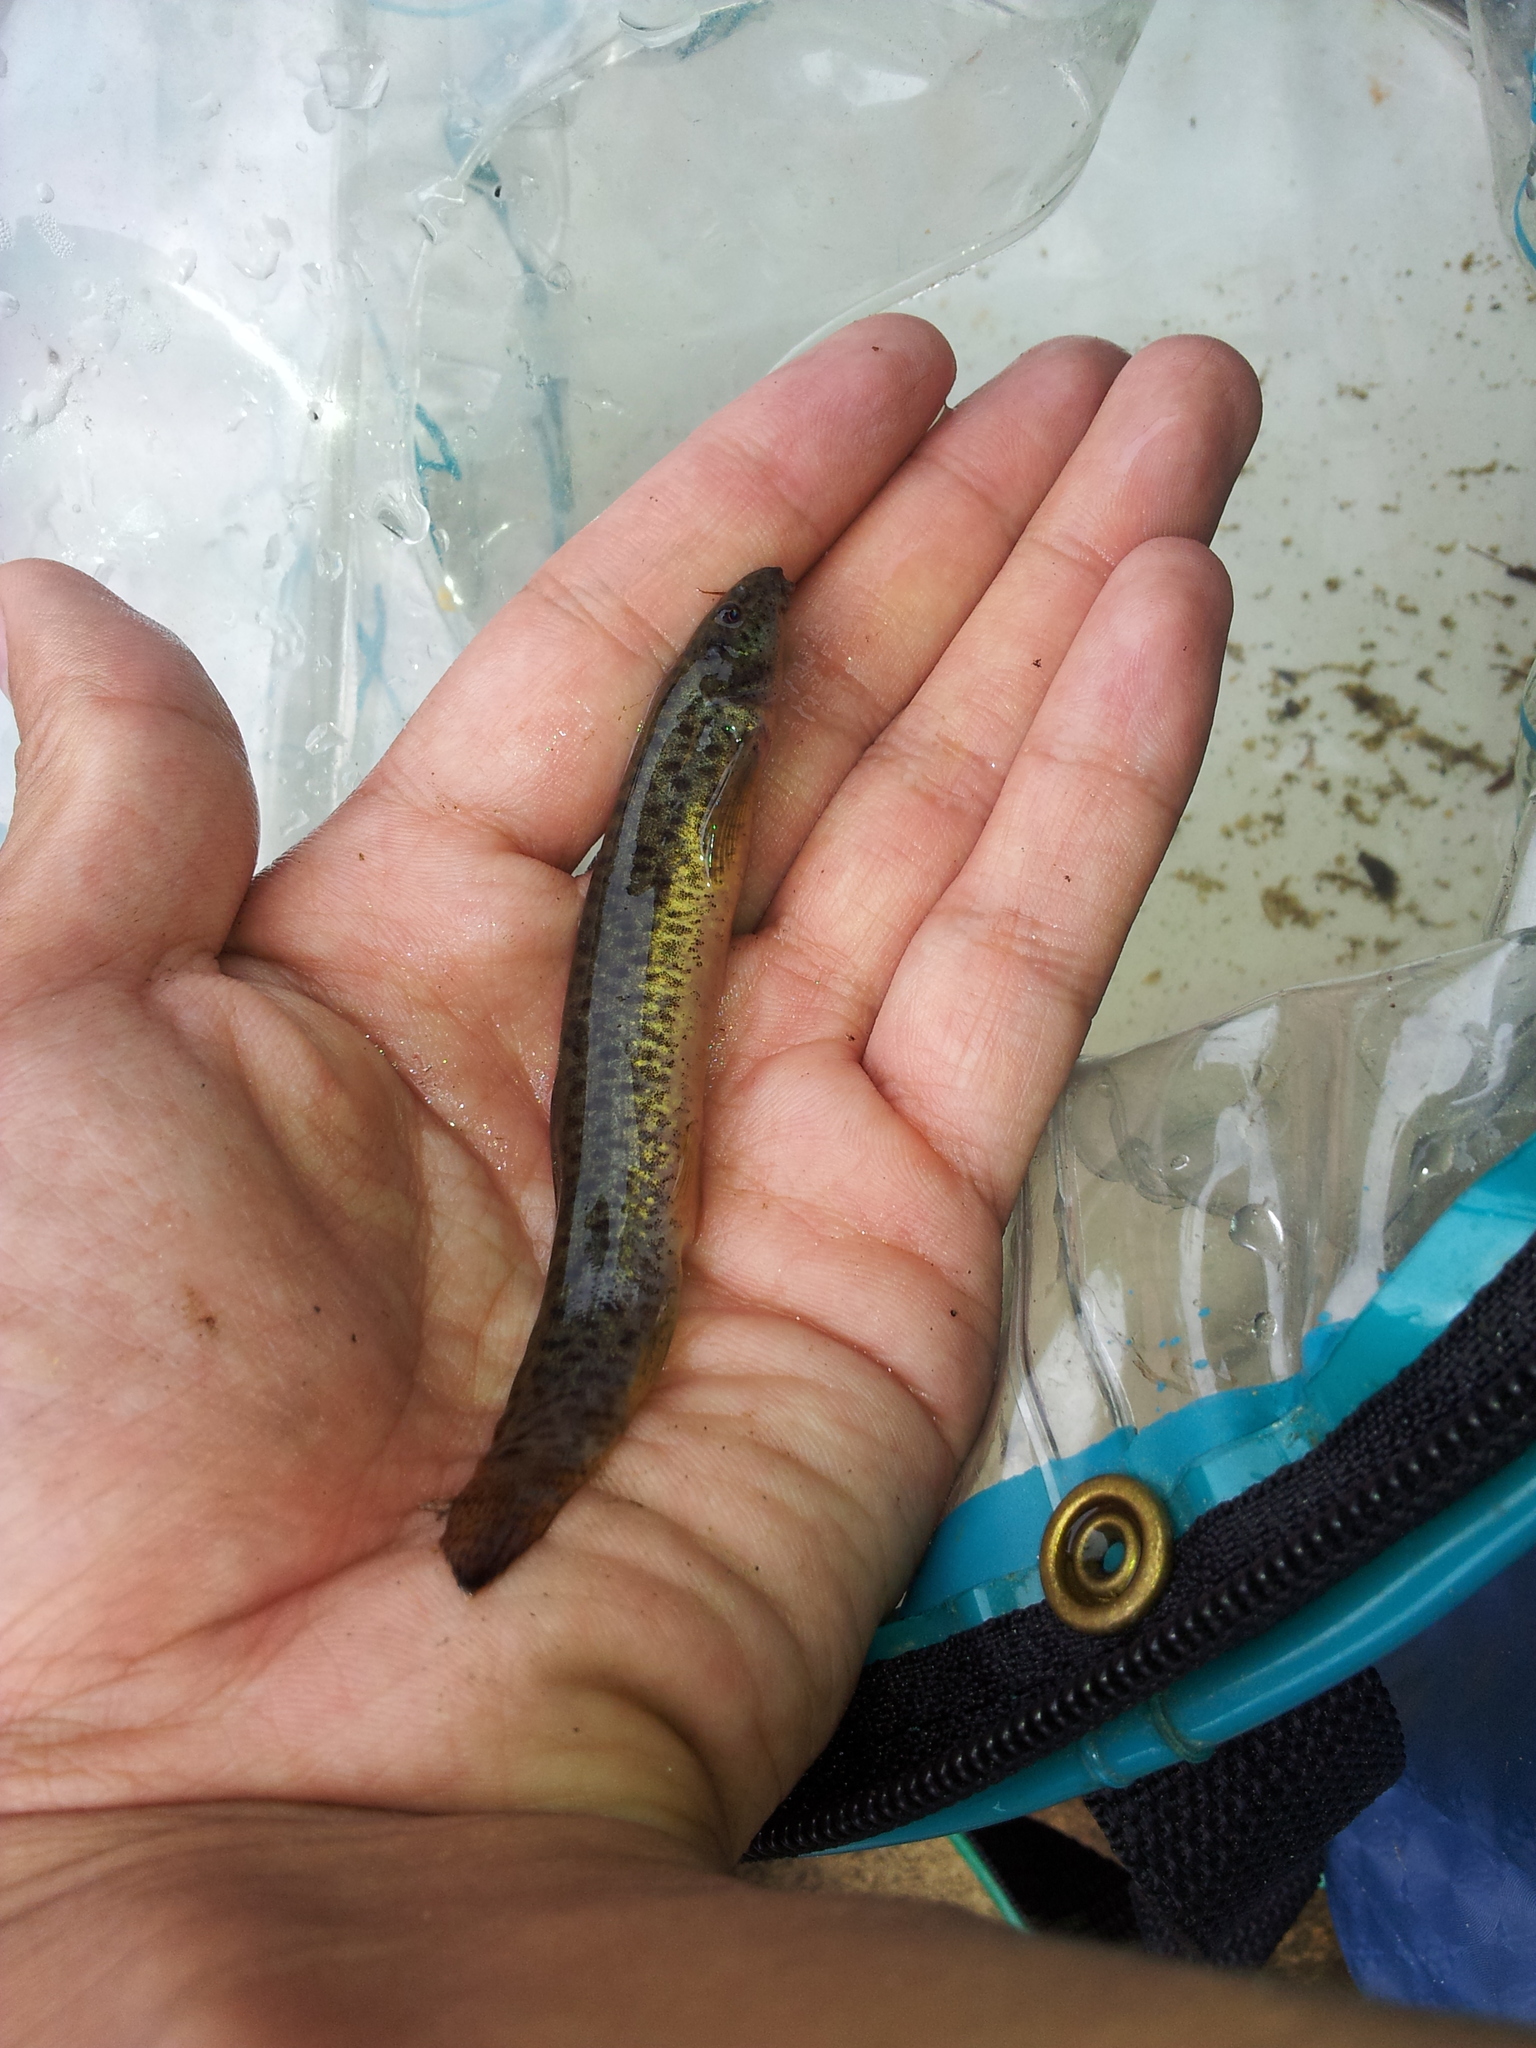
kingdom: Animalia
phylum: Chordata
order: Cypriniformes
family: Cobitidae
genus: Misgurnus
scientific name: Misgurnus anguillicaudatus
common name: Oriental weatherfish
